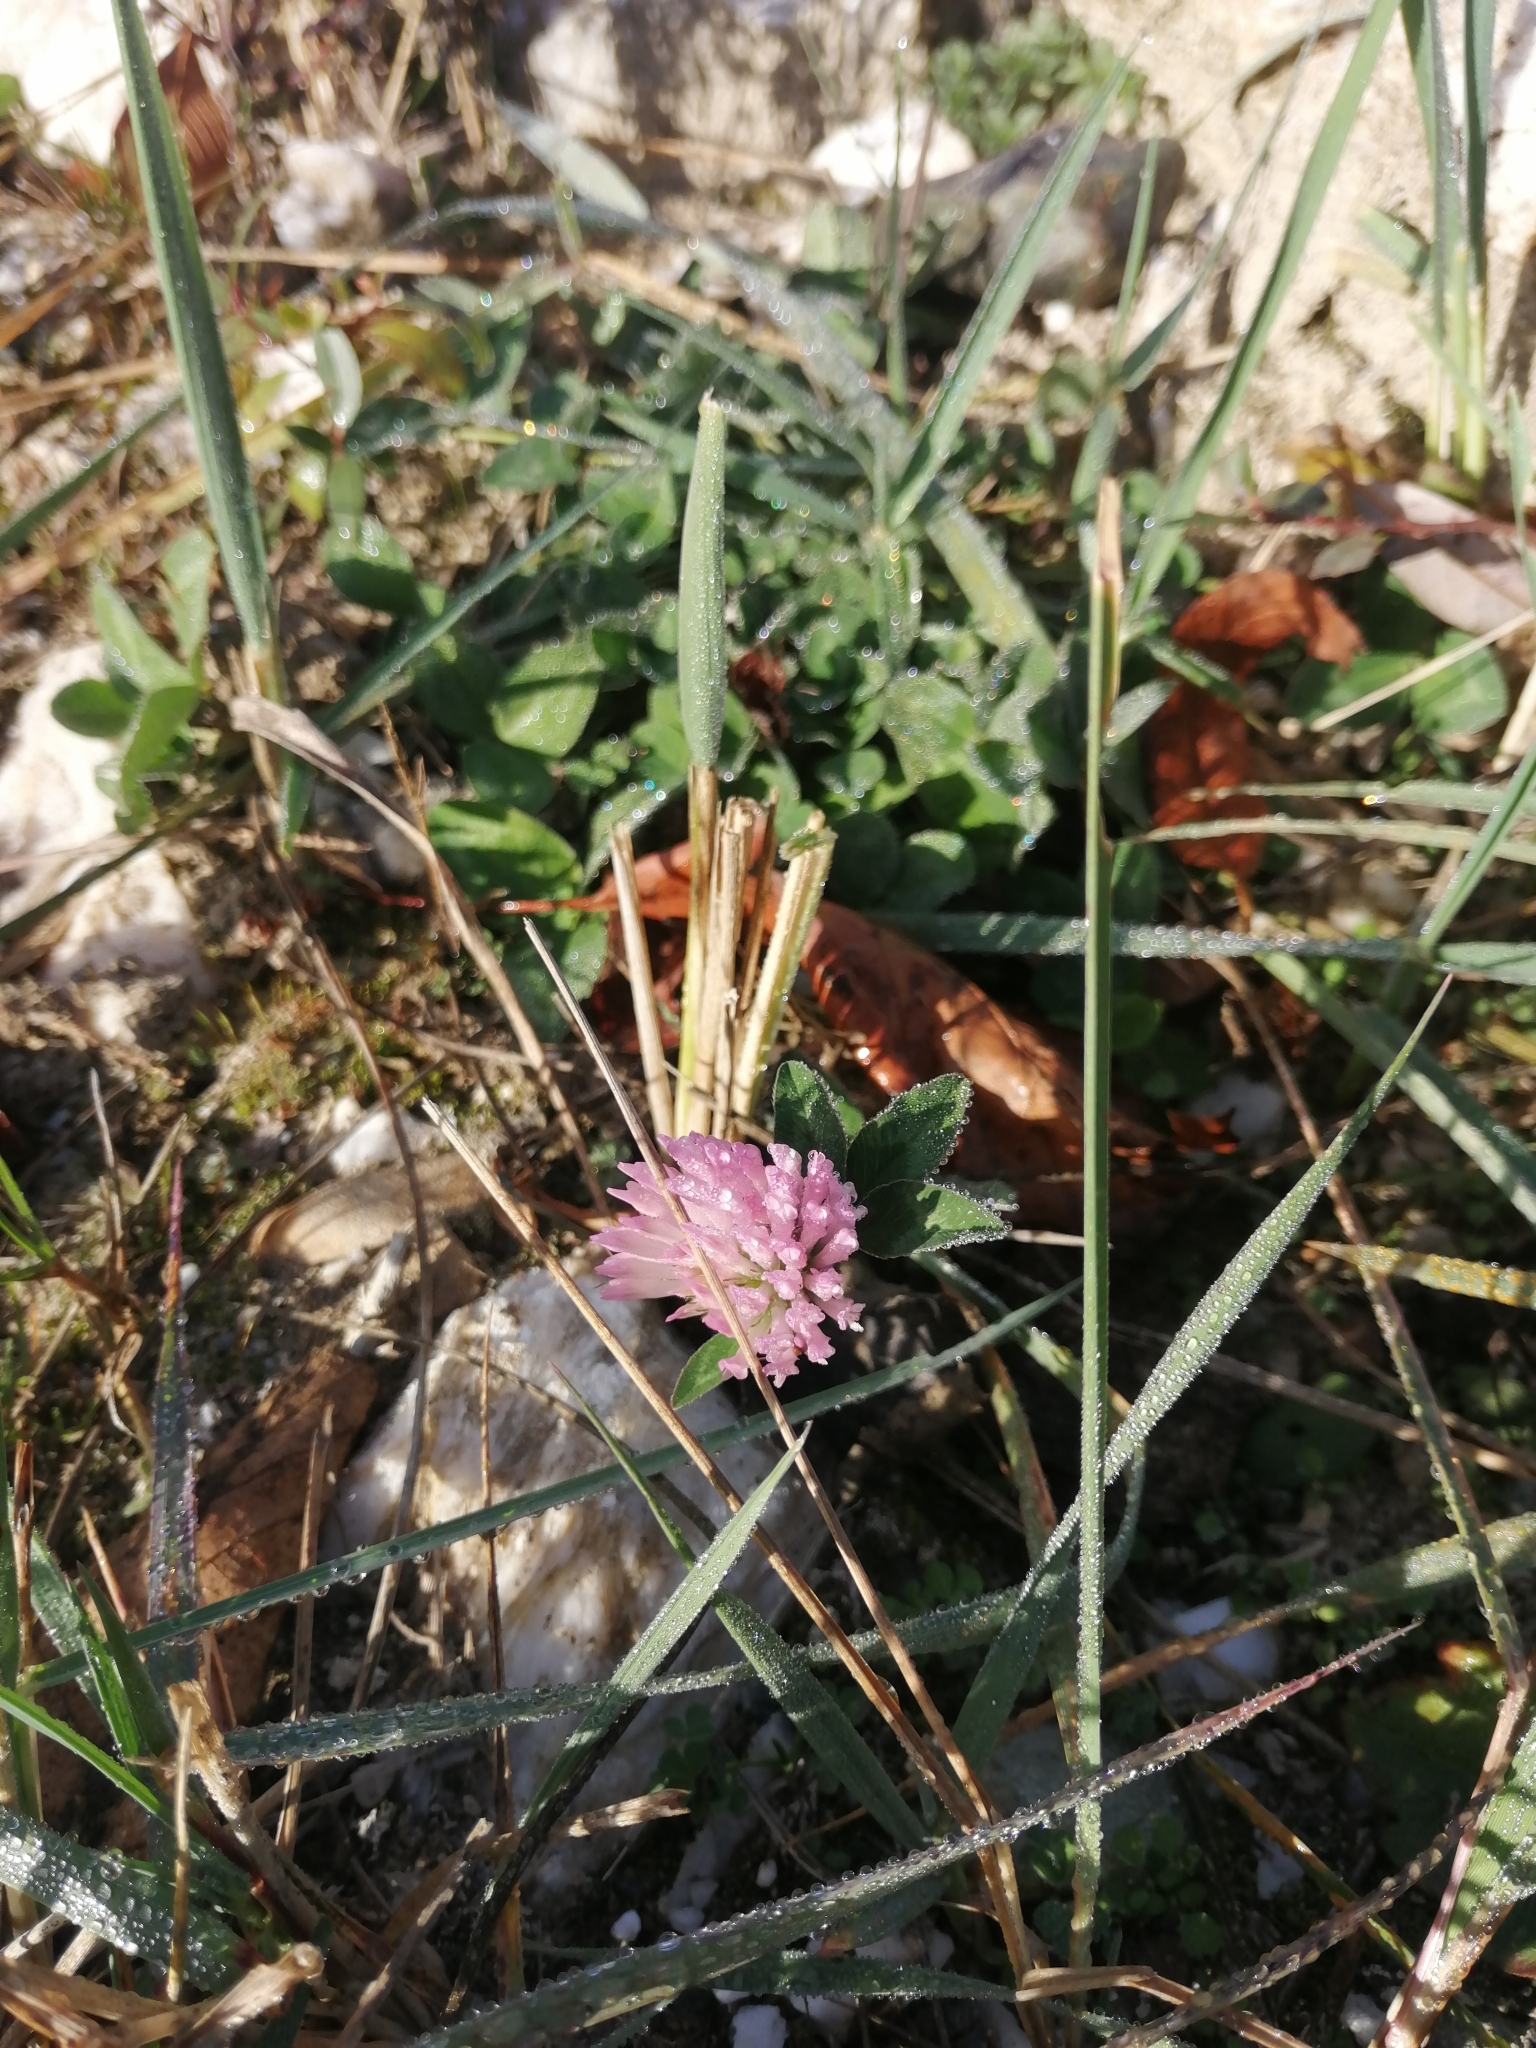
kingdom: Plantae
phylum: Tracheophyta
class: Magnoliopsida
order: Fabales
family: Fabaceae
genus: Trifolium
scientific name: Trifolium pratense
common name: Red clover
